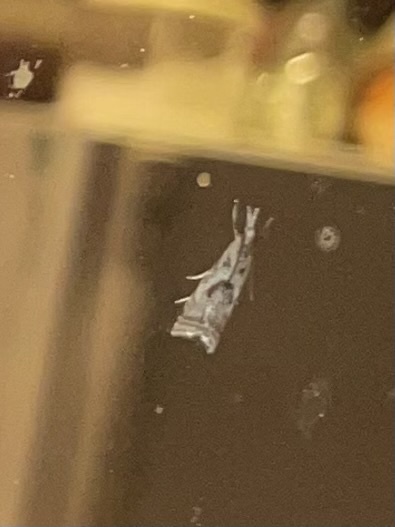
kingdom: Animalia
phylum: Arthropoda
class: Insecta
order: Lepidoptera
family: Crambidae
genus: Microcrambus
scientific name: Microcrambus elegans
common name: Elegant grass-veneer
